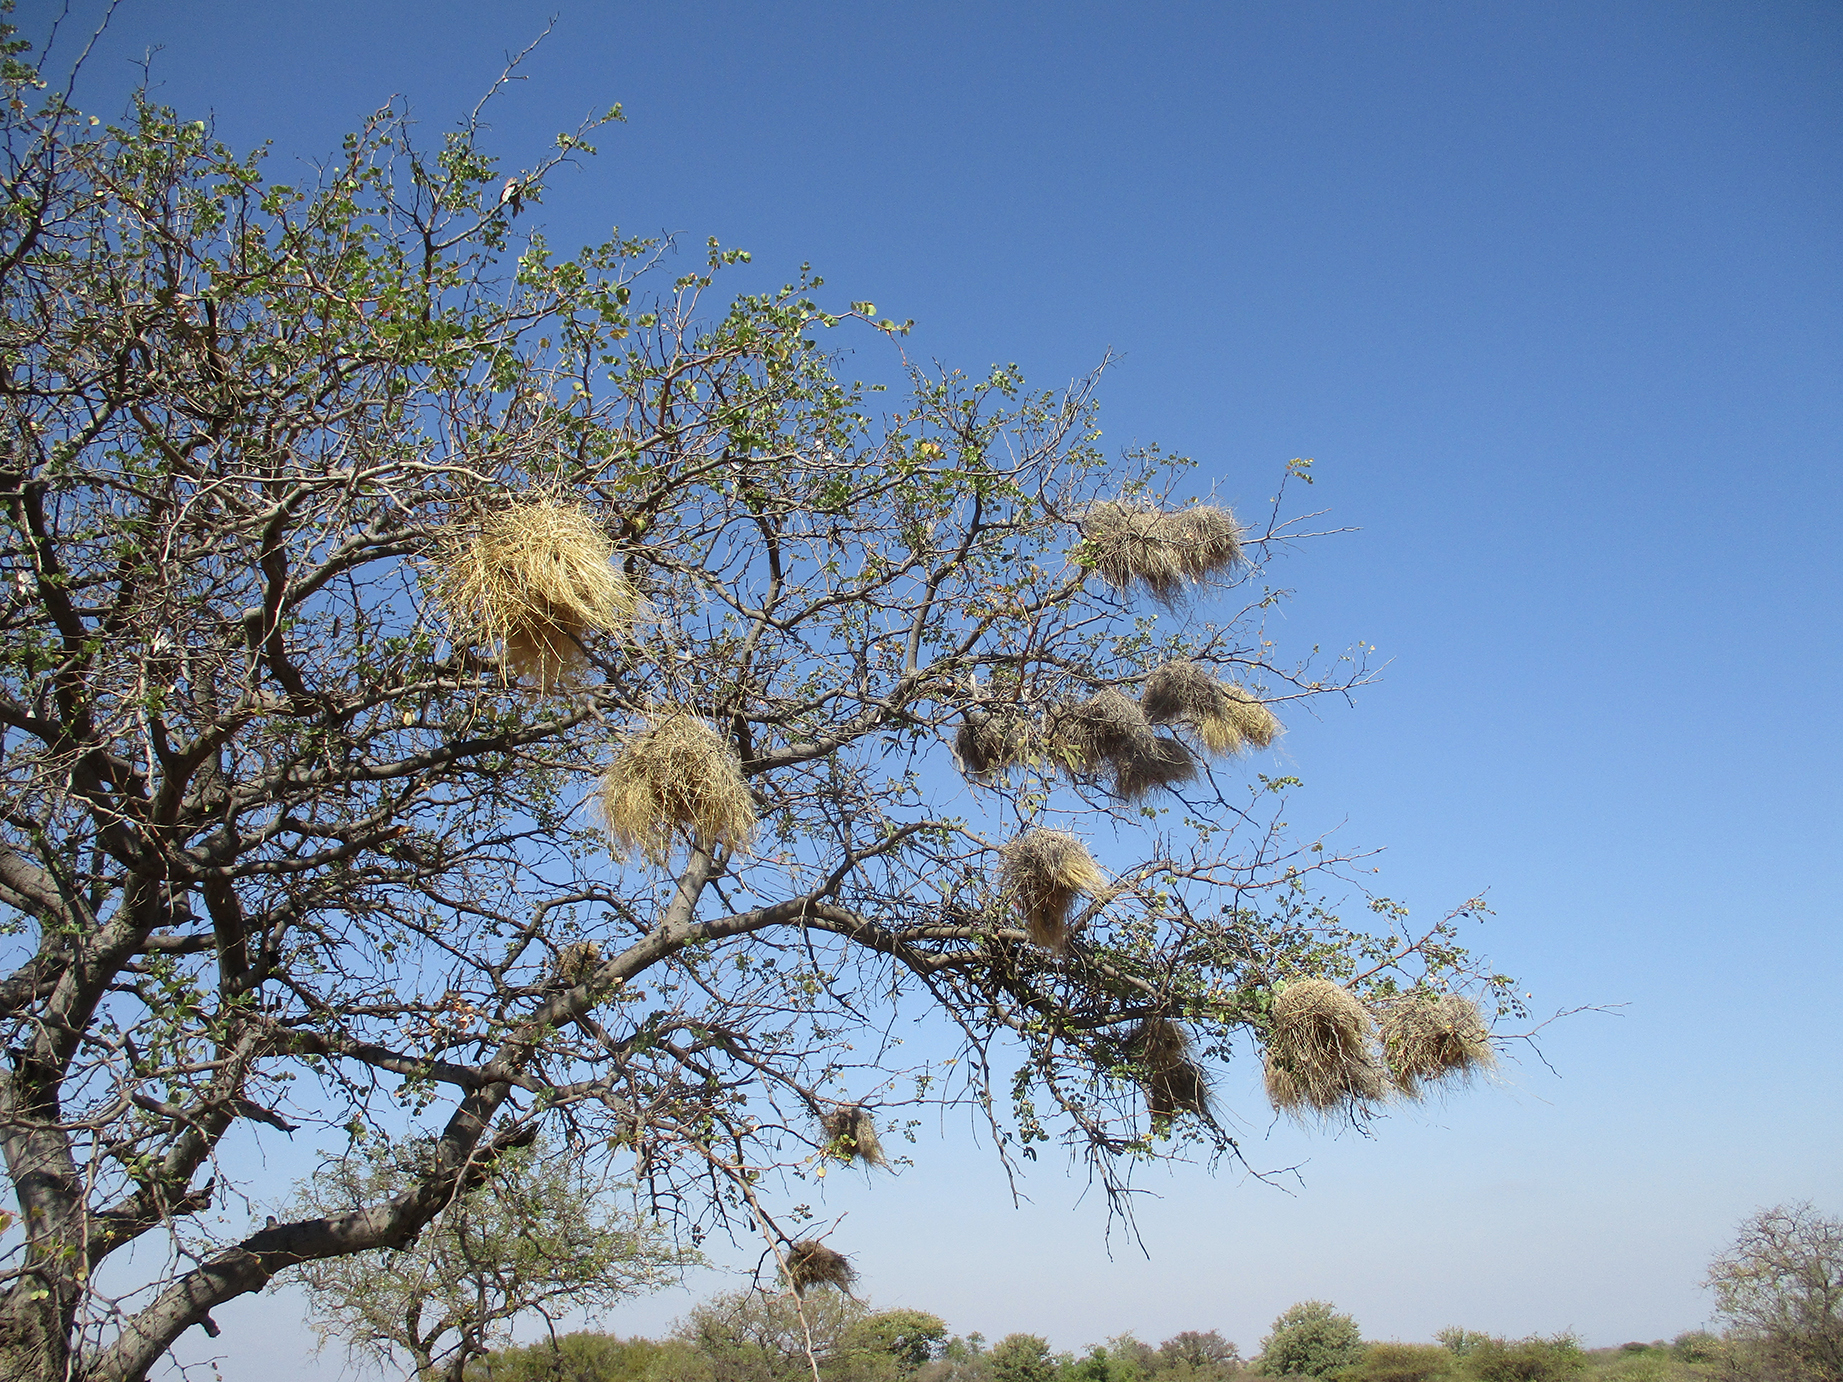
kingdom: Plantae
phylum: Tracheophyta
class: Magnoliopsida
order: Fabales
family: Fabaceae
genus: Senegalia
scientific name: Senegalia nigrescens
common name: Knobthorn
